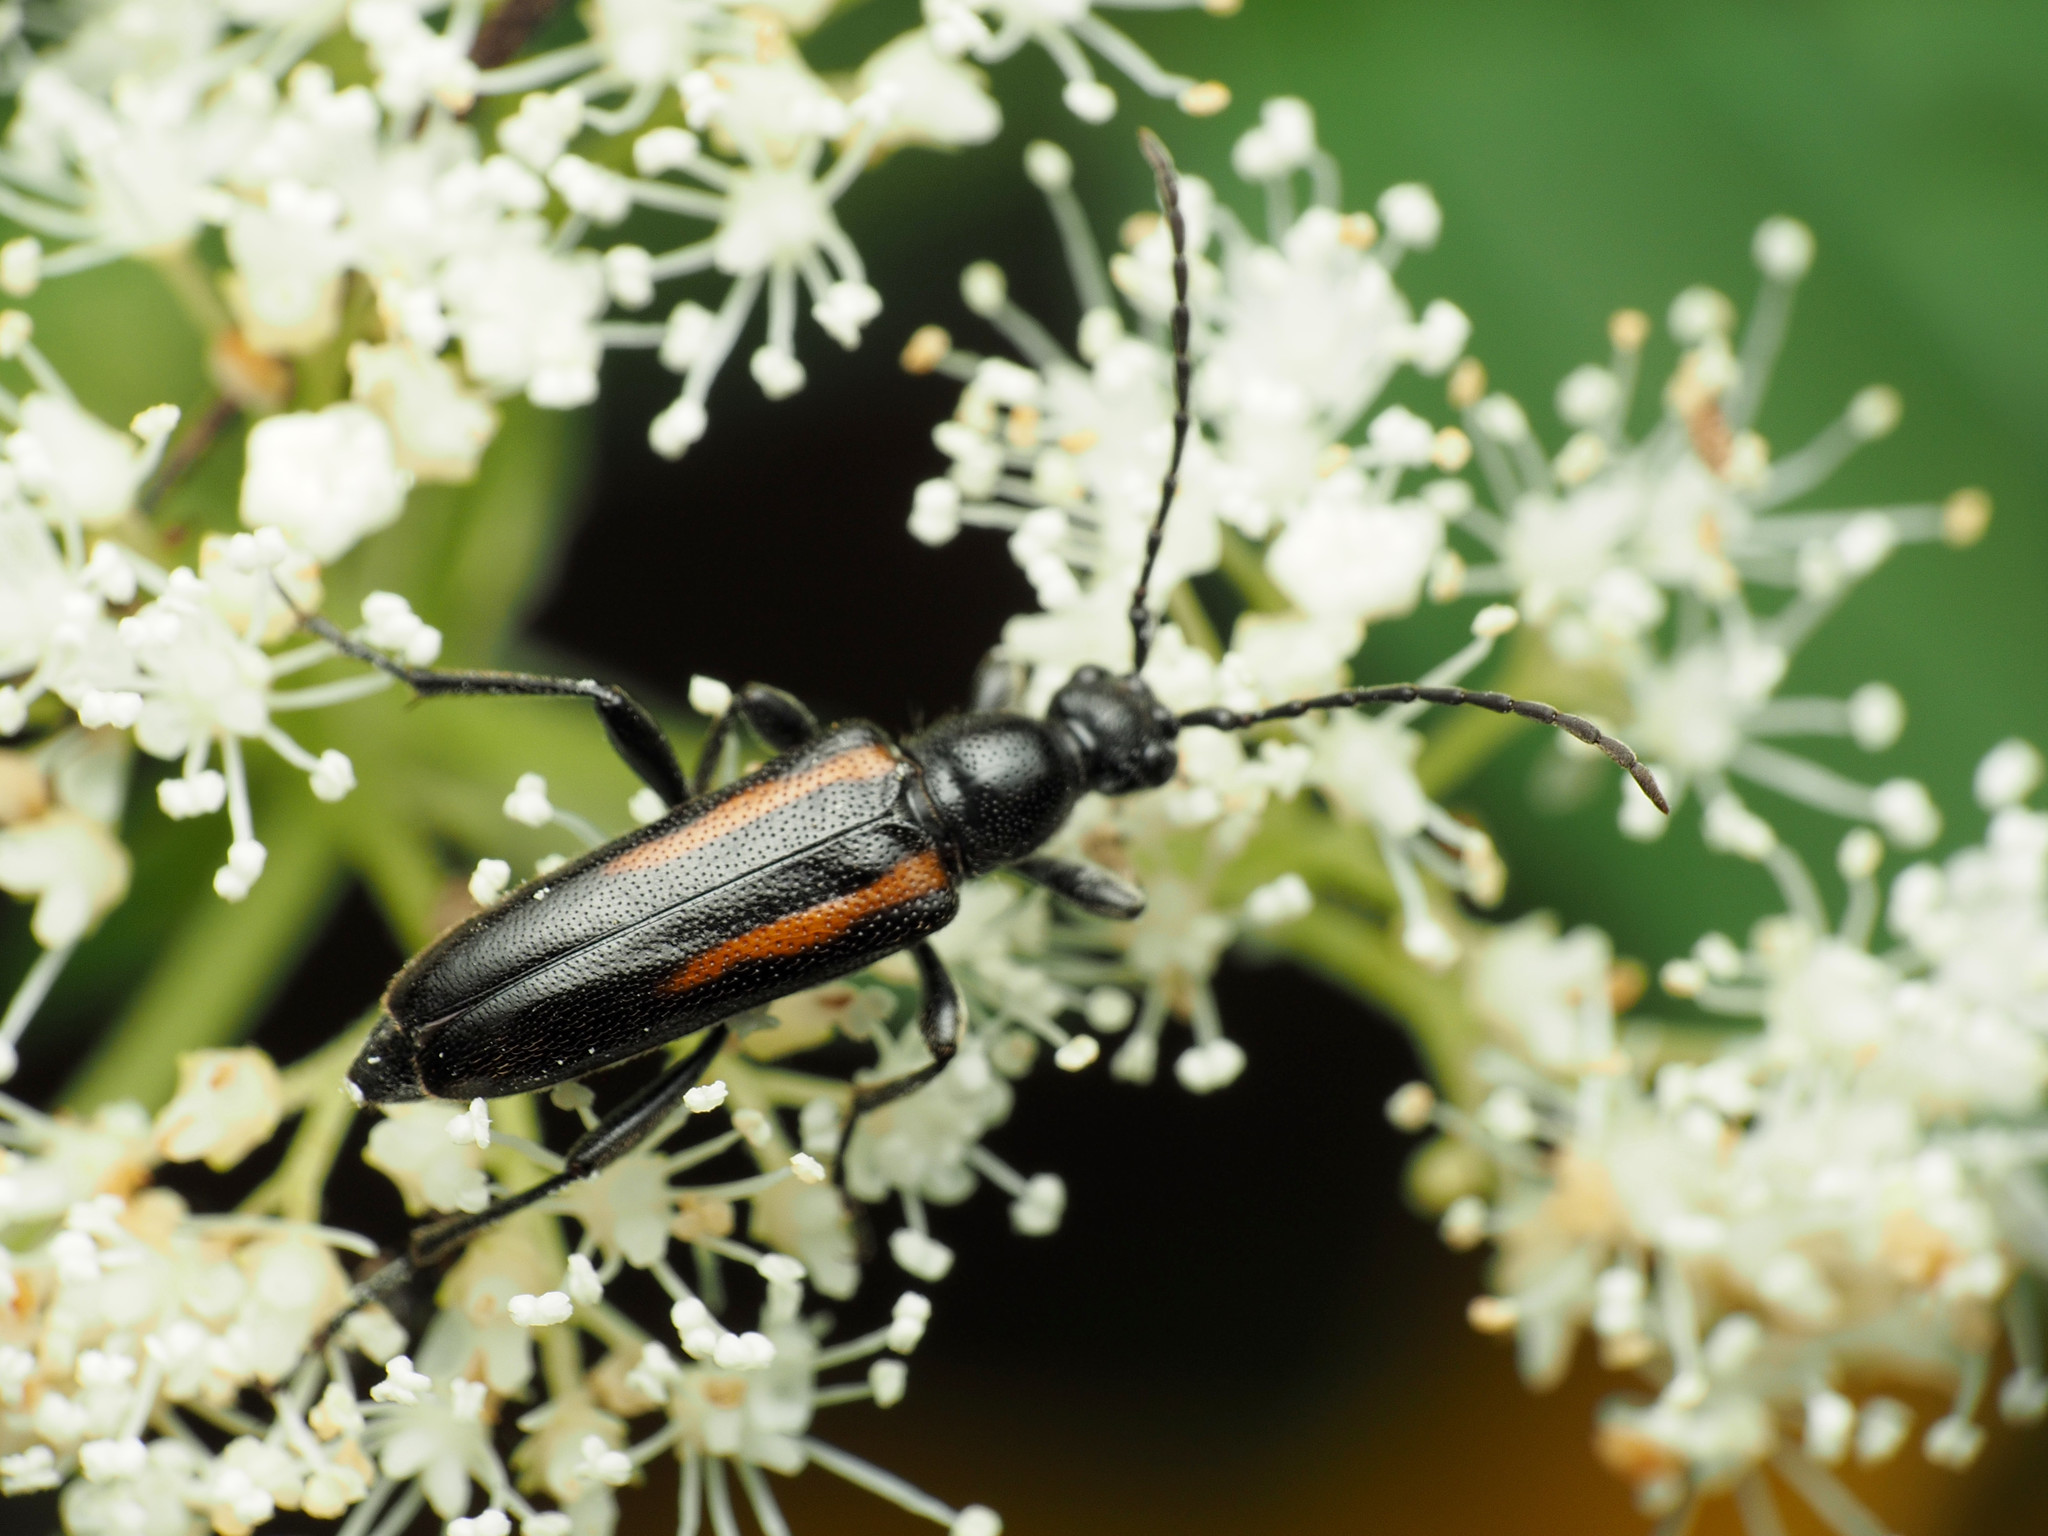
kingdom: Animalia
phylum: Arthropoda
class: Insecta
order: Coleoptera
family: Cerambycidae
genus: Strangalepta
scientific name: Strangalepta abbreviata
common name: Strangalepta flower longhorn beetle
